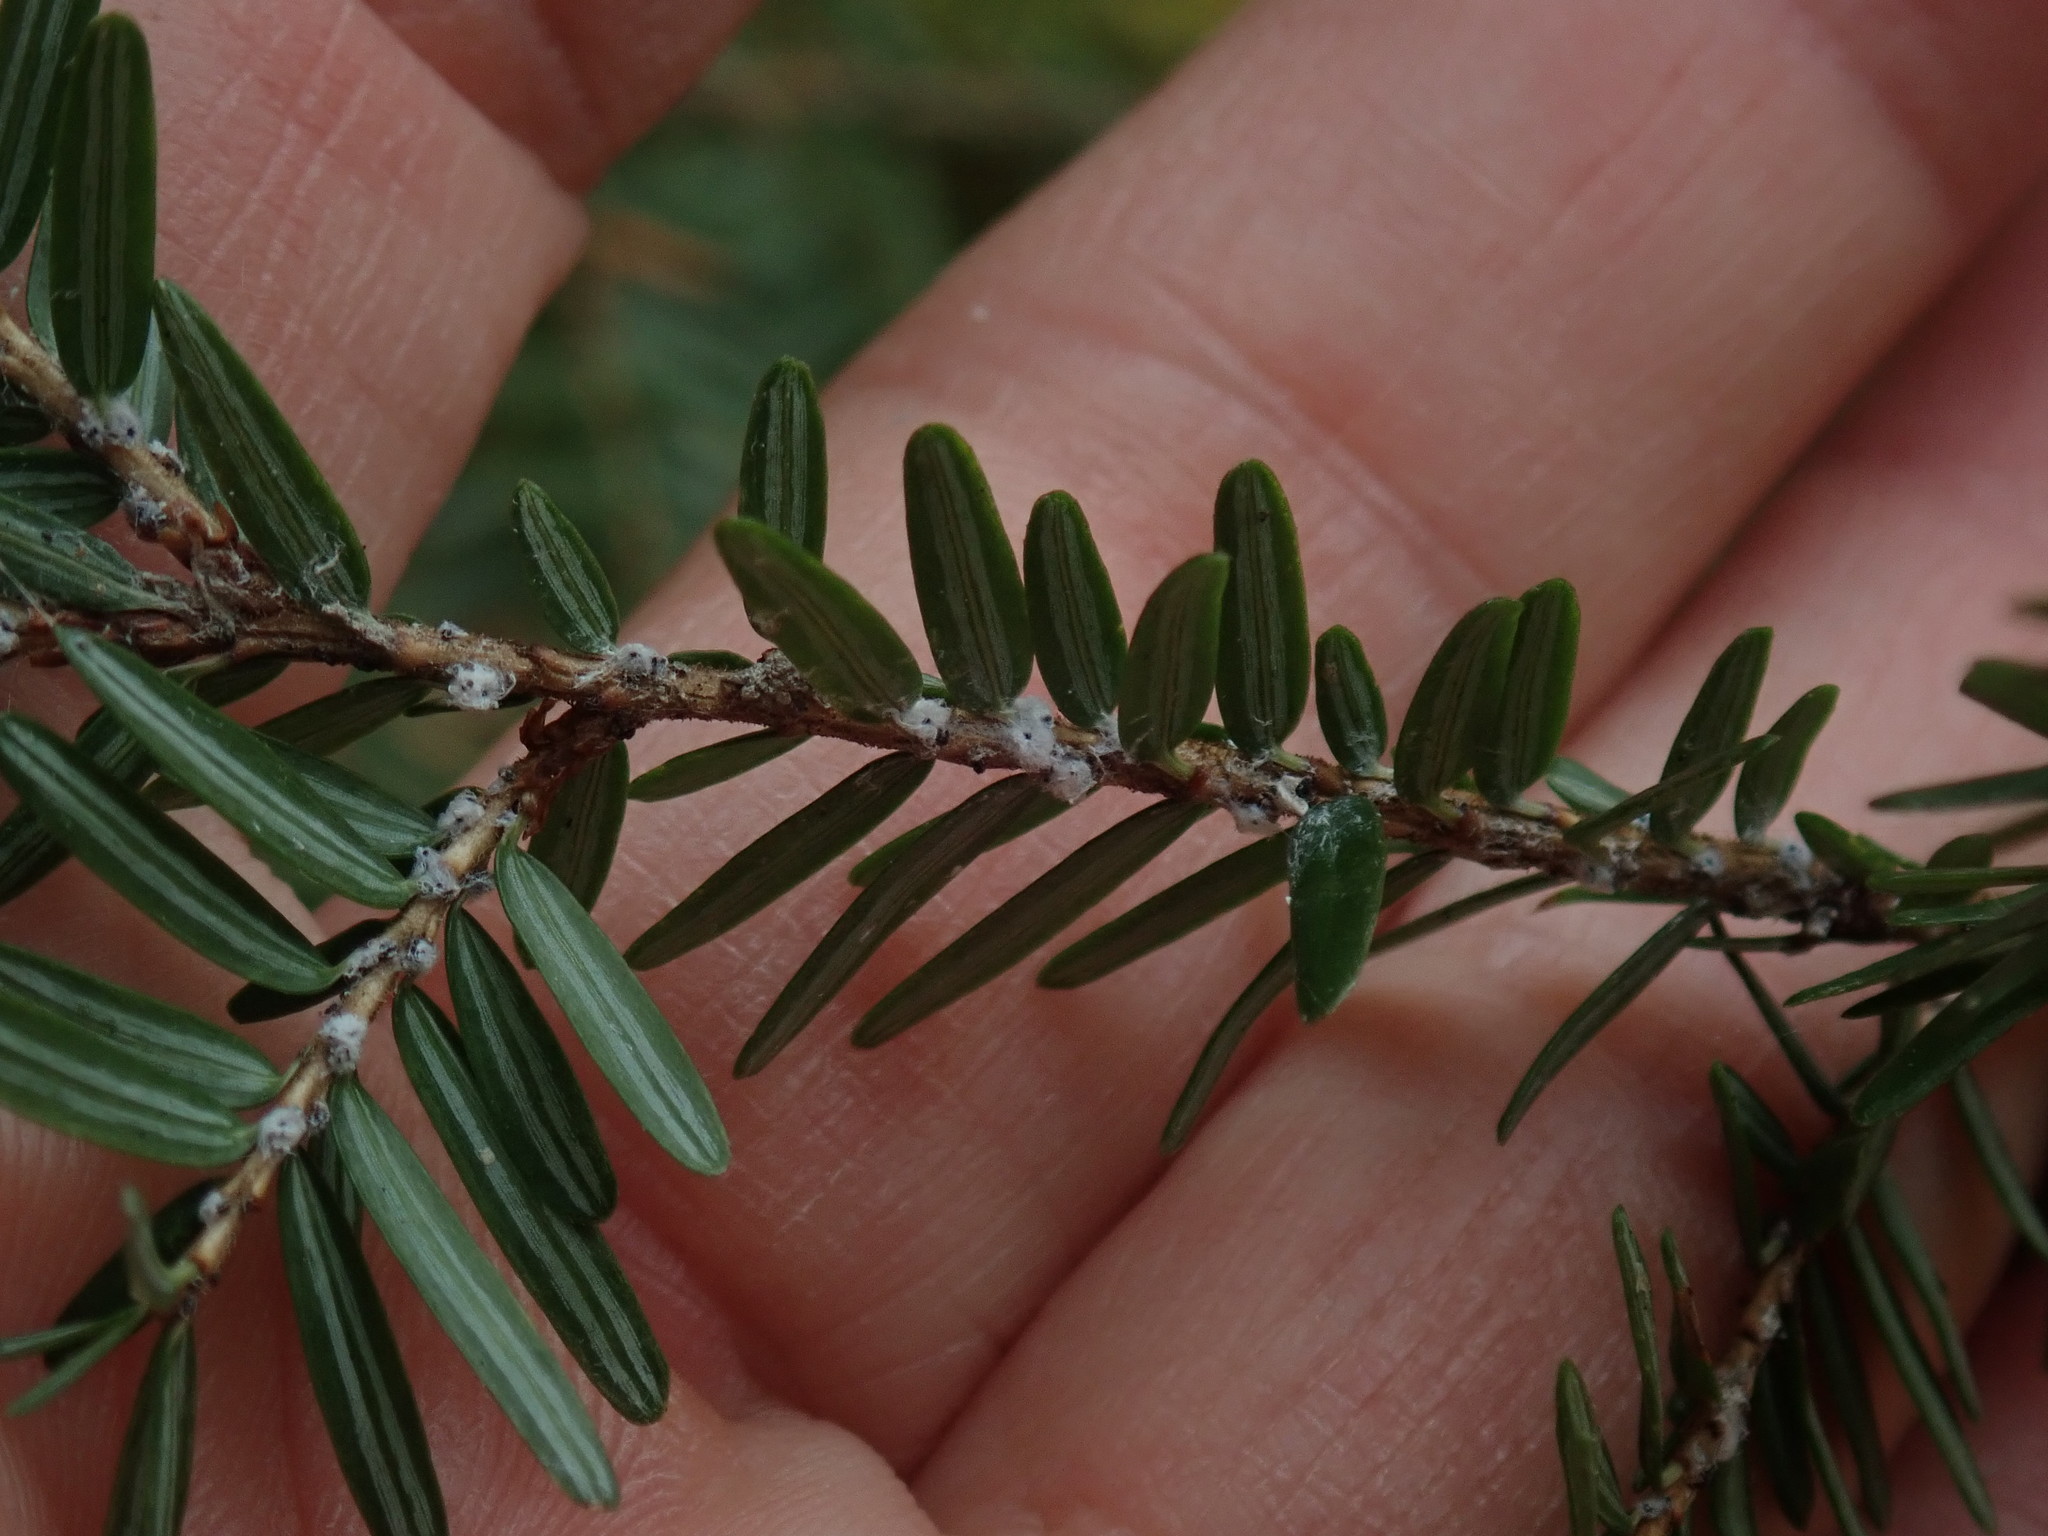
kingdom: Animalia
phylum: Arthropoda
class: Insecta
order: Hemiptera
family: Adelgidae
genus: Adelges
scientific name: Adelges tsugae
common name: Hemlock woolly adelgid
